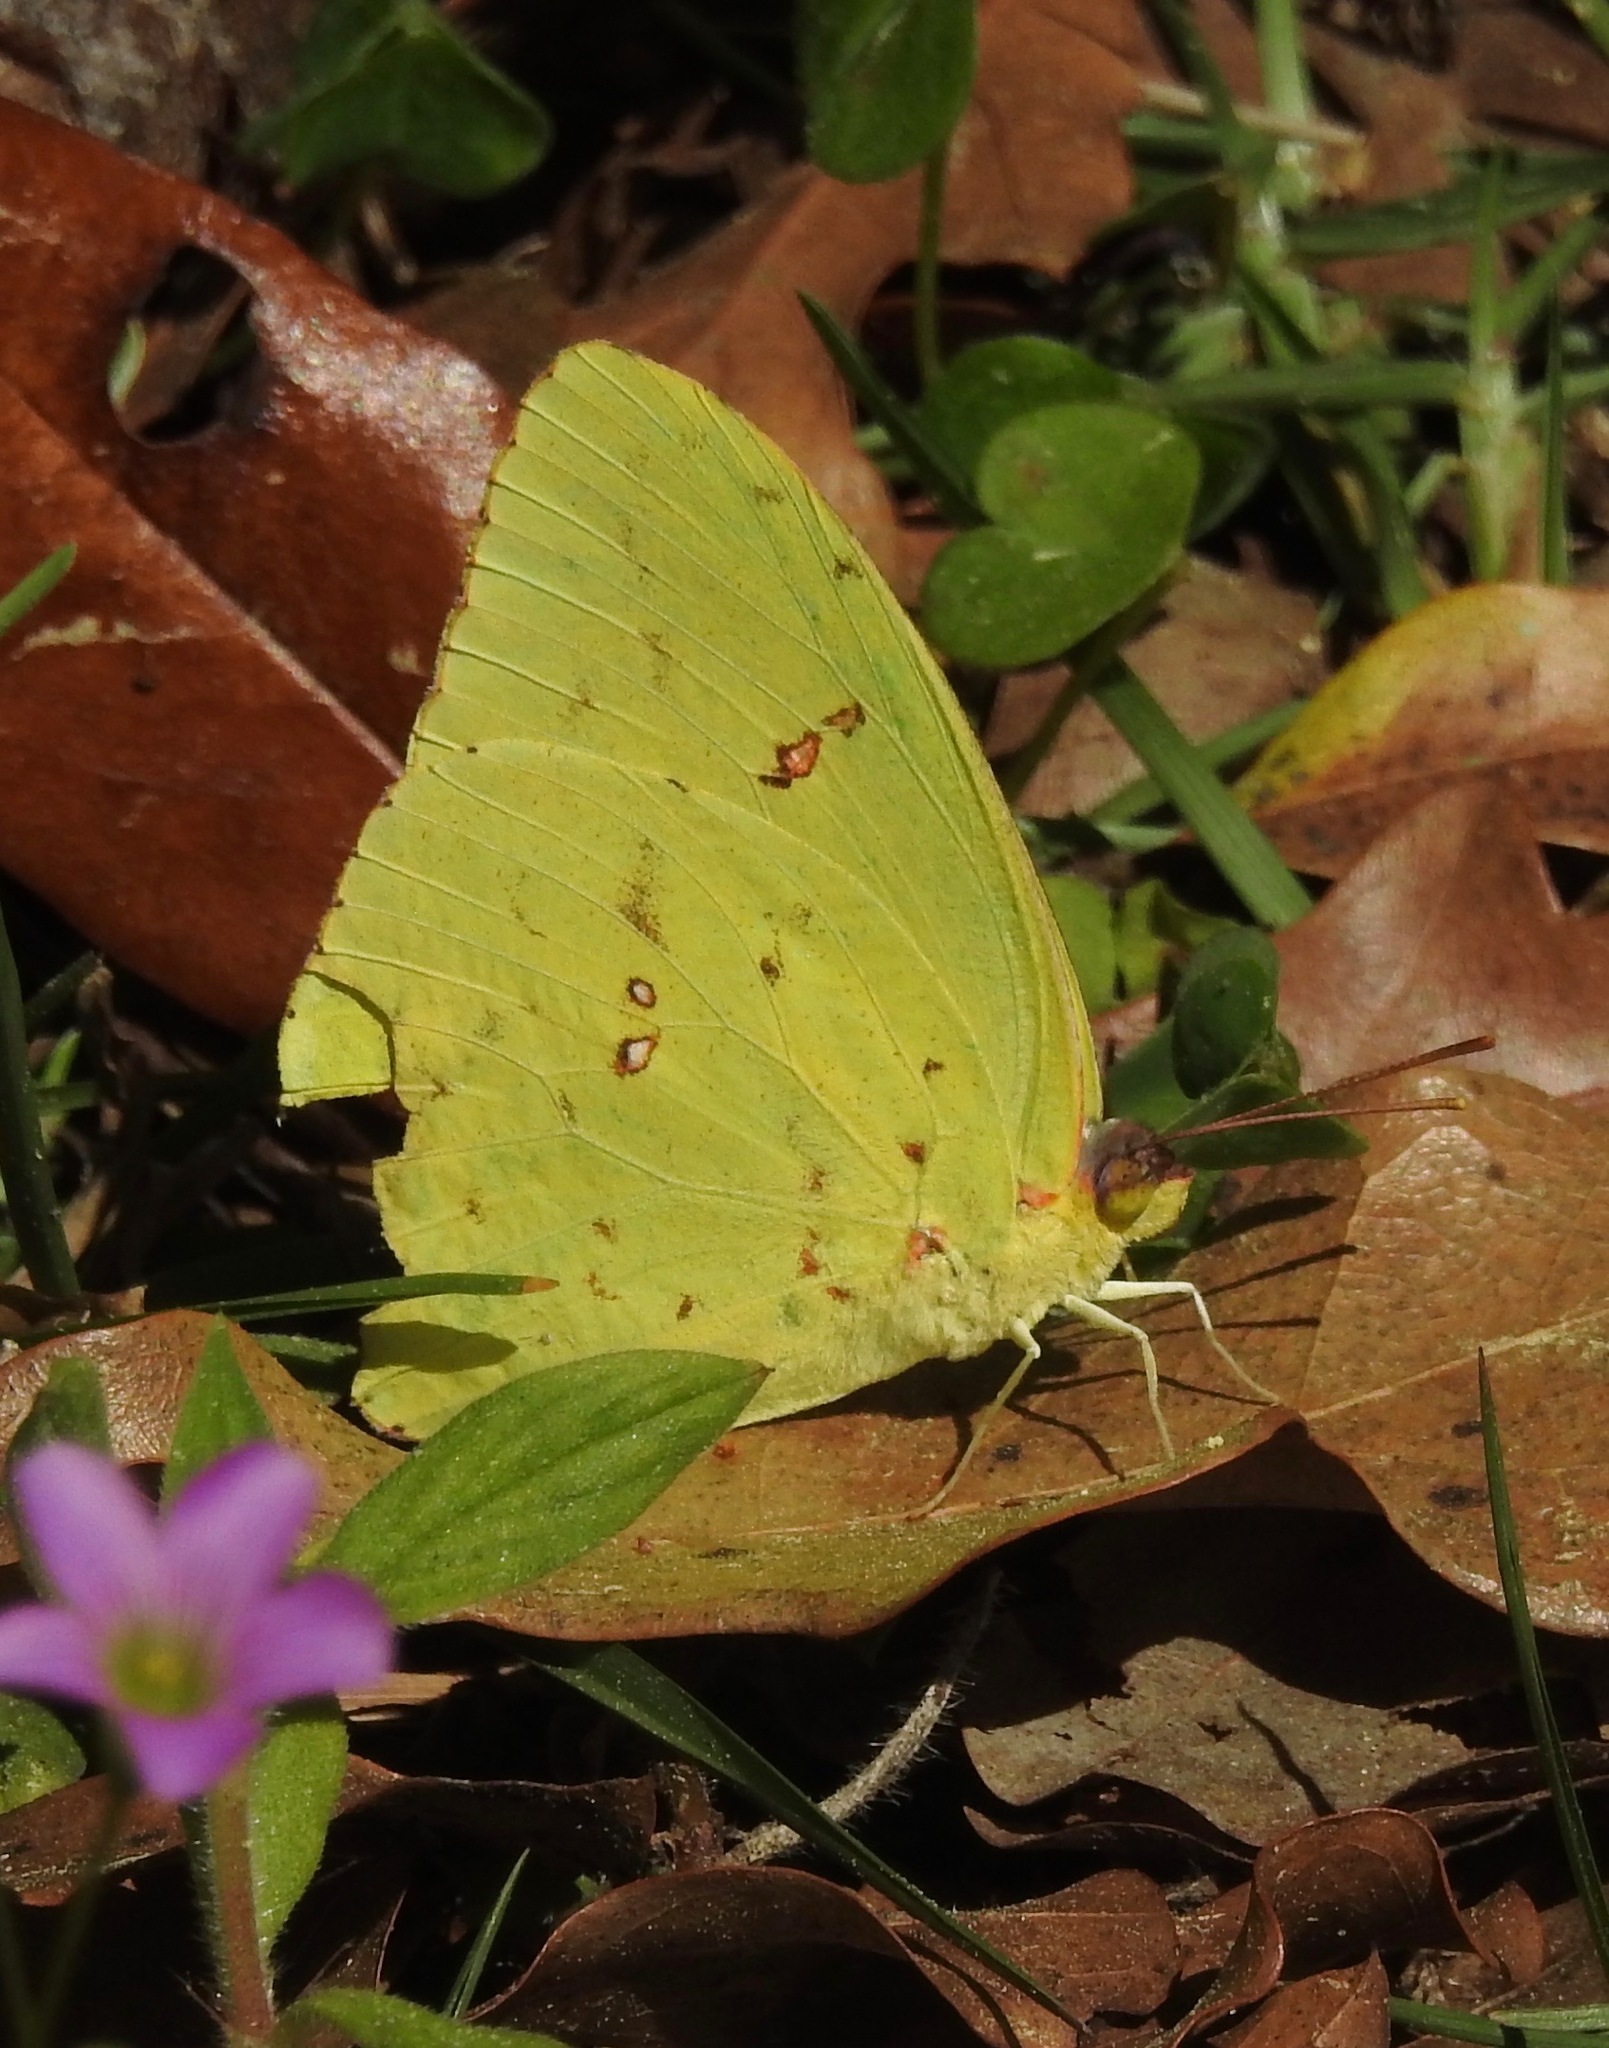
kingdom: Animalia
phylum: Arthropoda
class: Insecta
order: Lepidoptera
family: Pieridae
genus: Phoebis
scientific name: Phoebis sennae
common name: Cloudless sulphur
